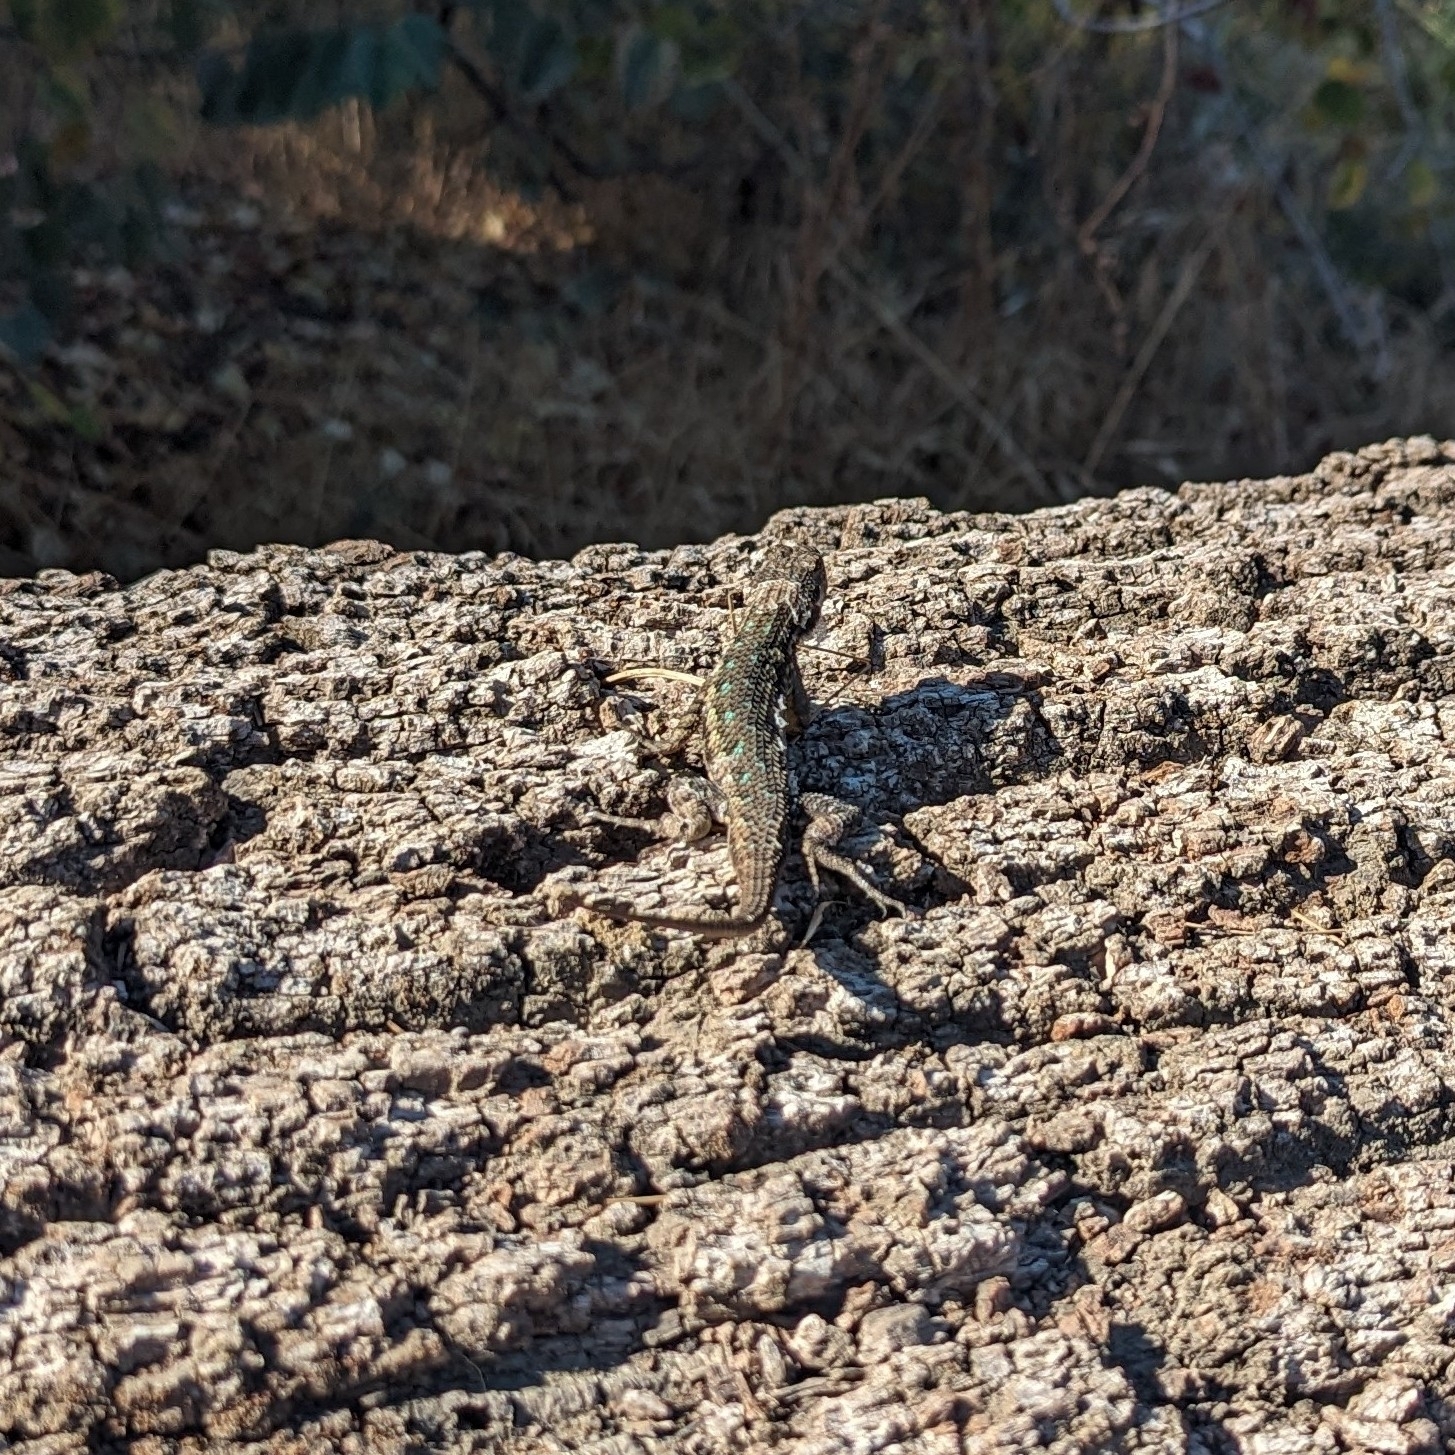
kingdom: Animalia
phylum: Chordata
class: Squamata
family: Phrynosomatidae
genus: Sceloporus
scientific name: Sceloporus occidentalis
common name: Western fence lizard
